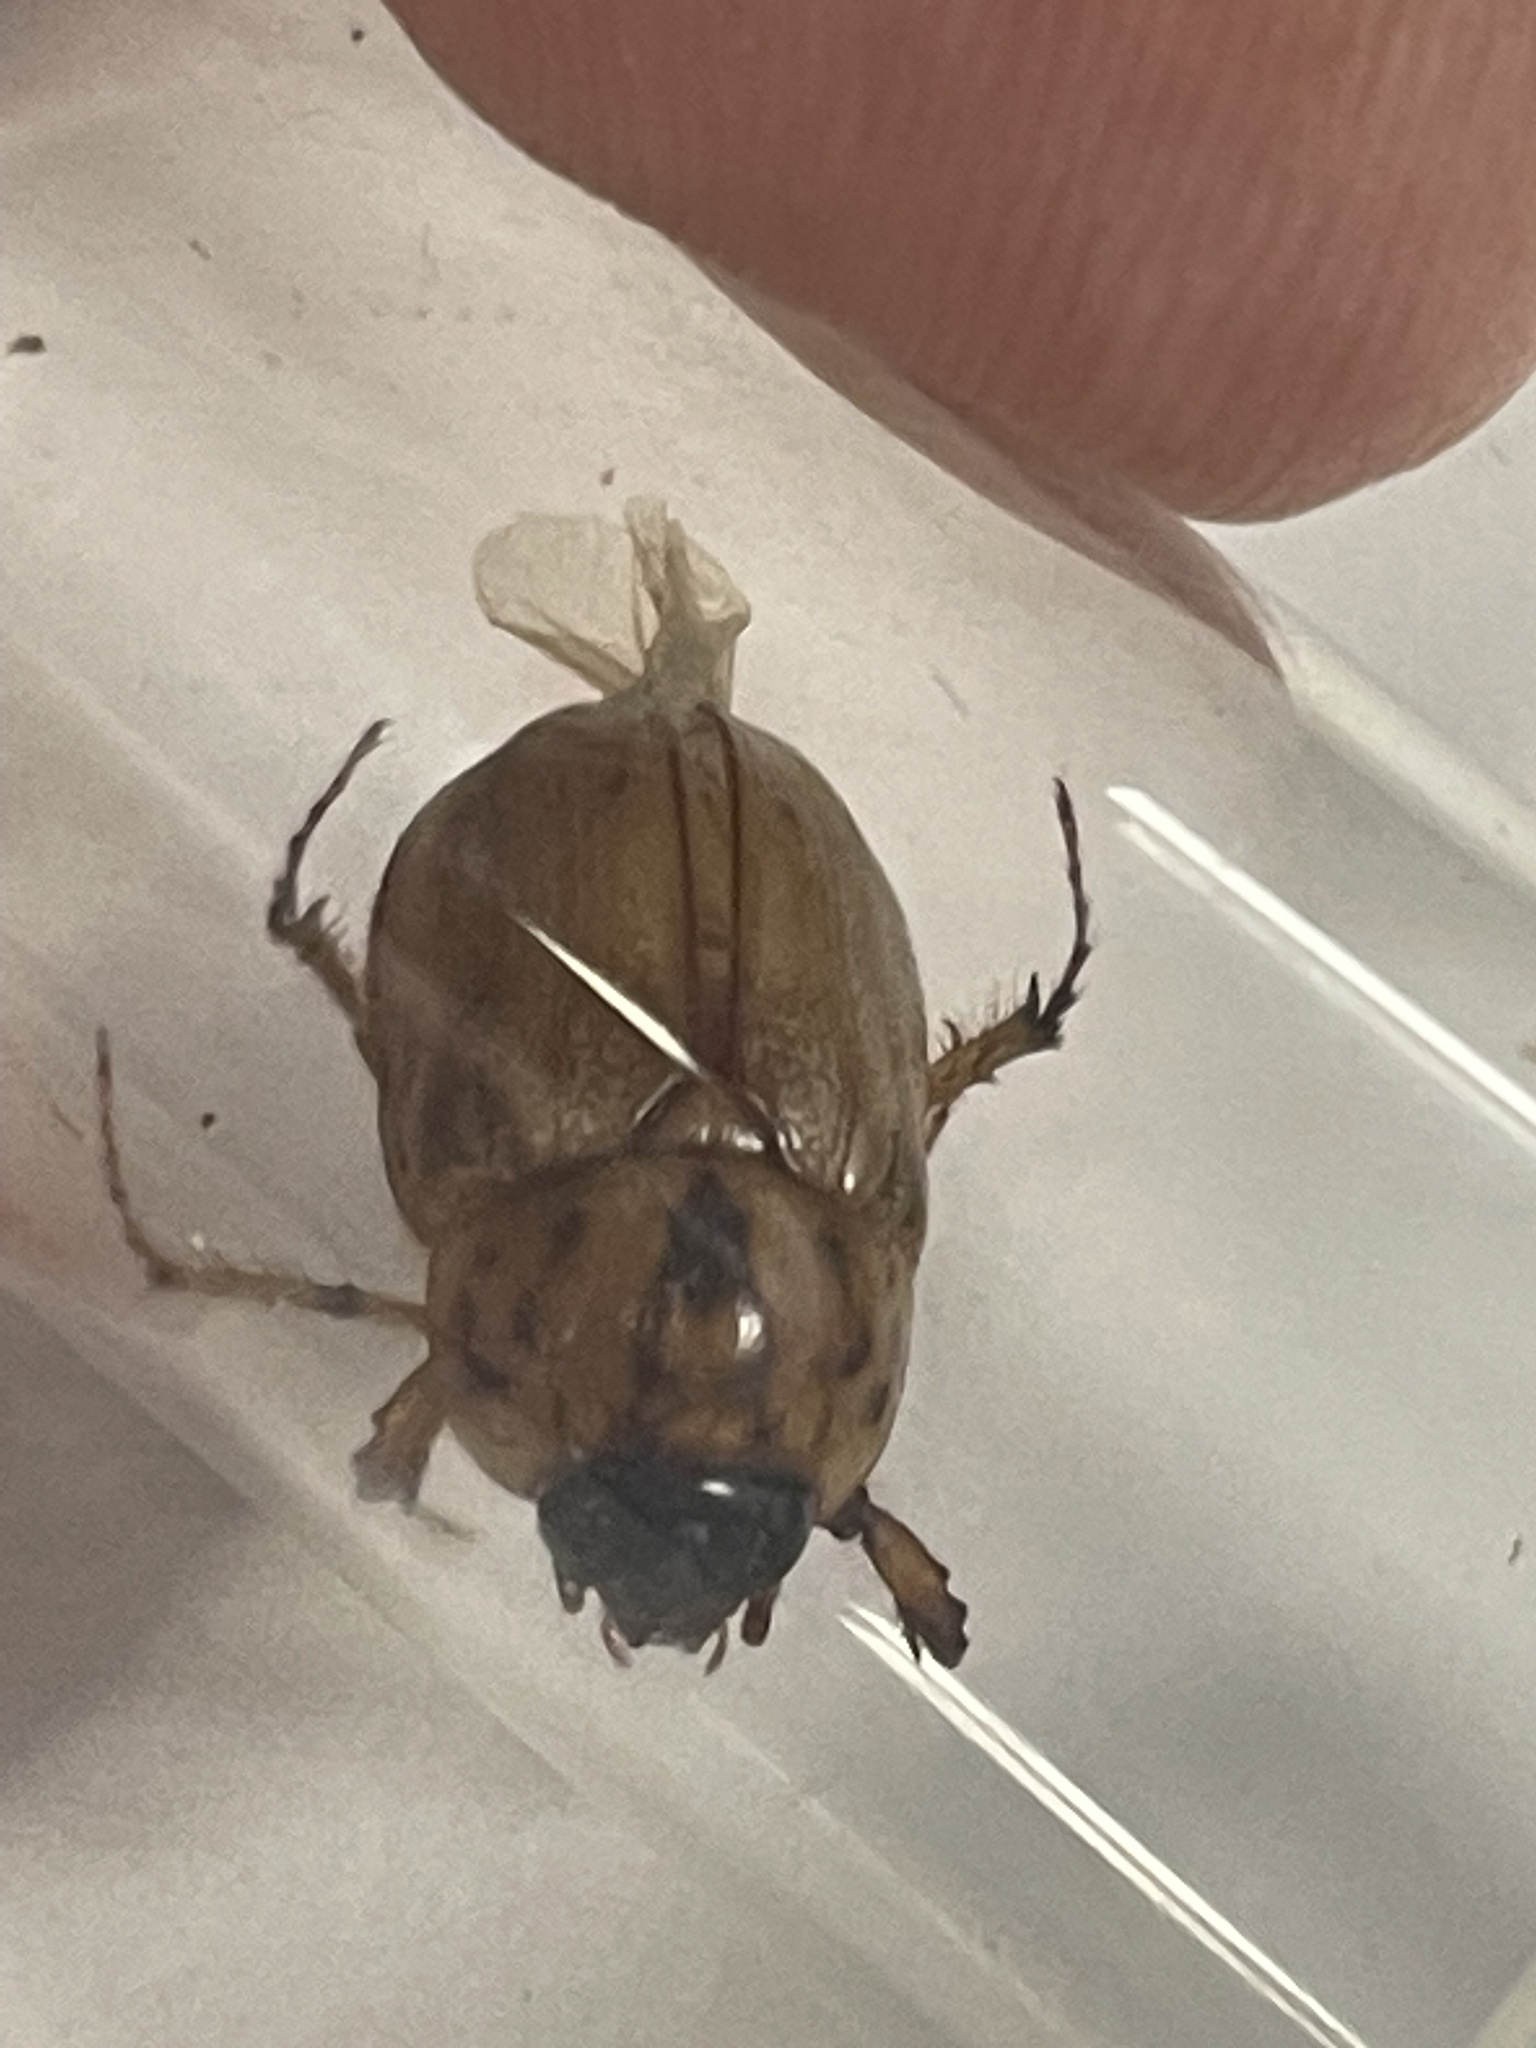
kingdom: Animalia
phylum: Arthropoda
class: Insecta
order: Coleoptera
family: Scarabaeidae
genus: Cyclocephala
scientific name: Cyclocephala signaticollis
